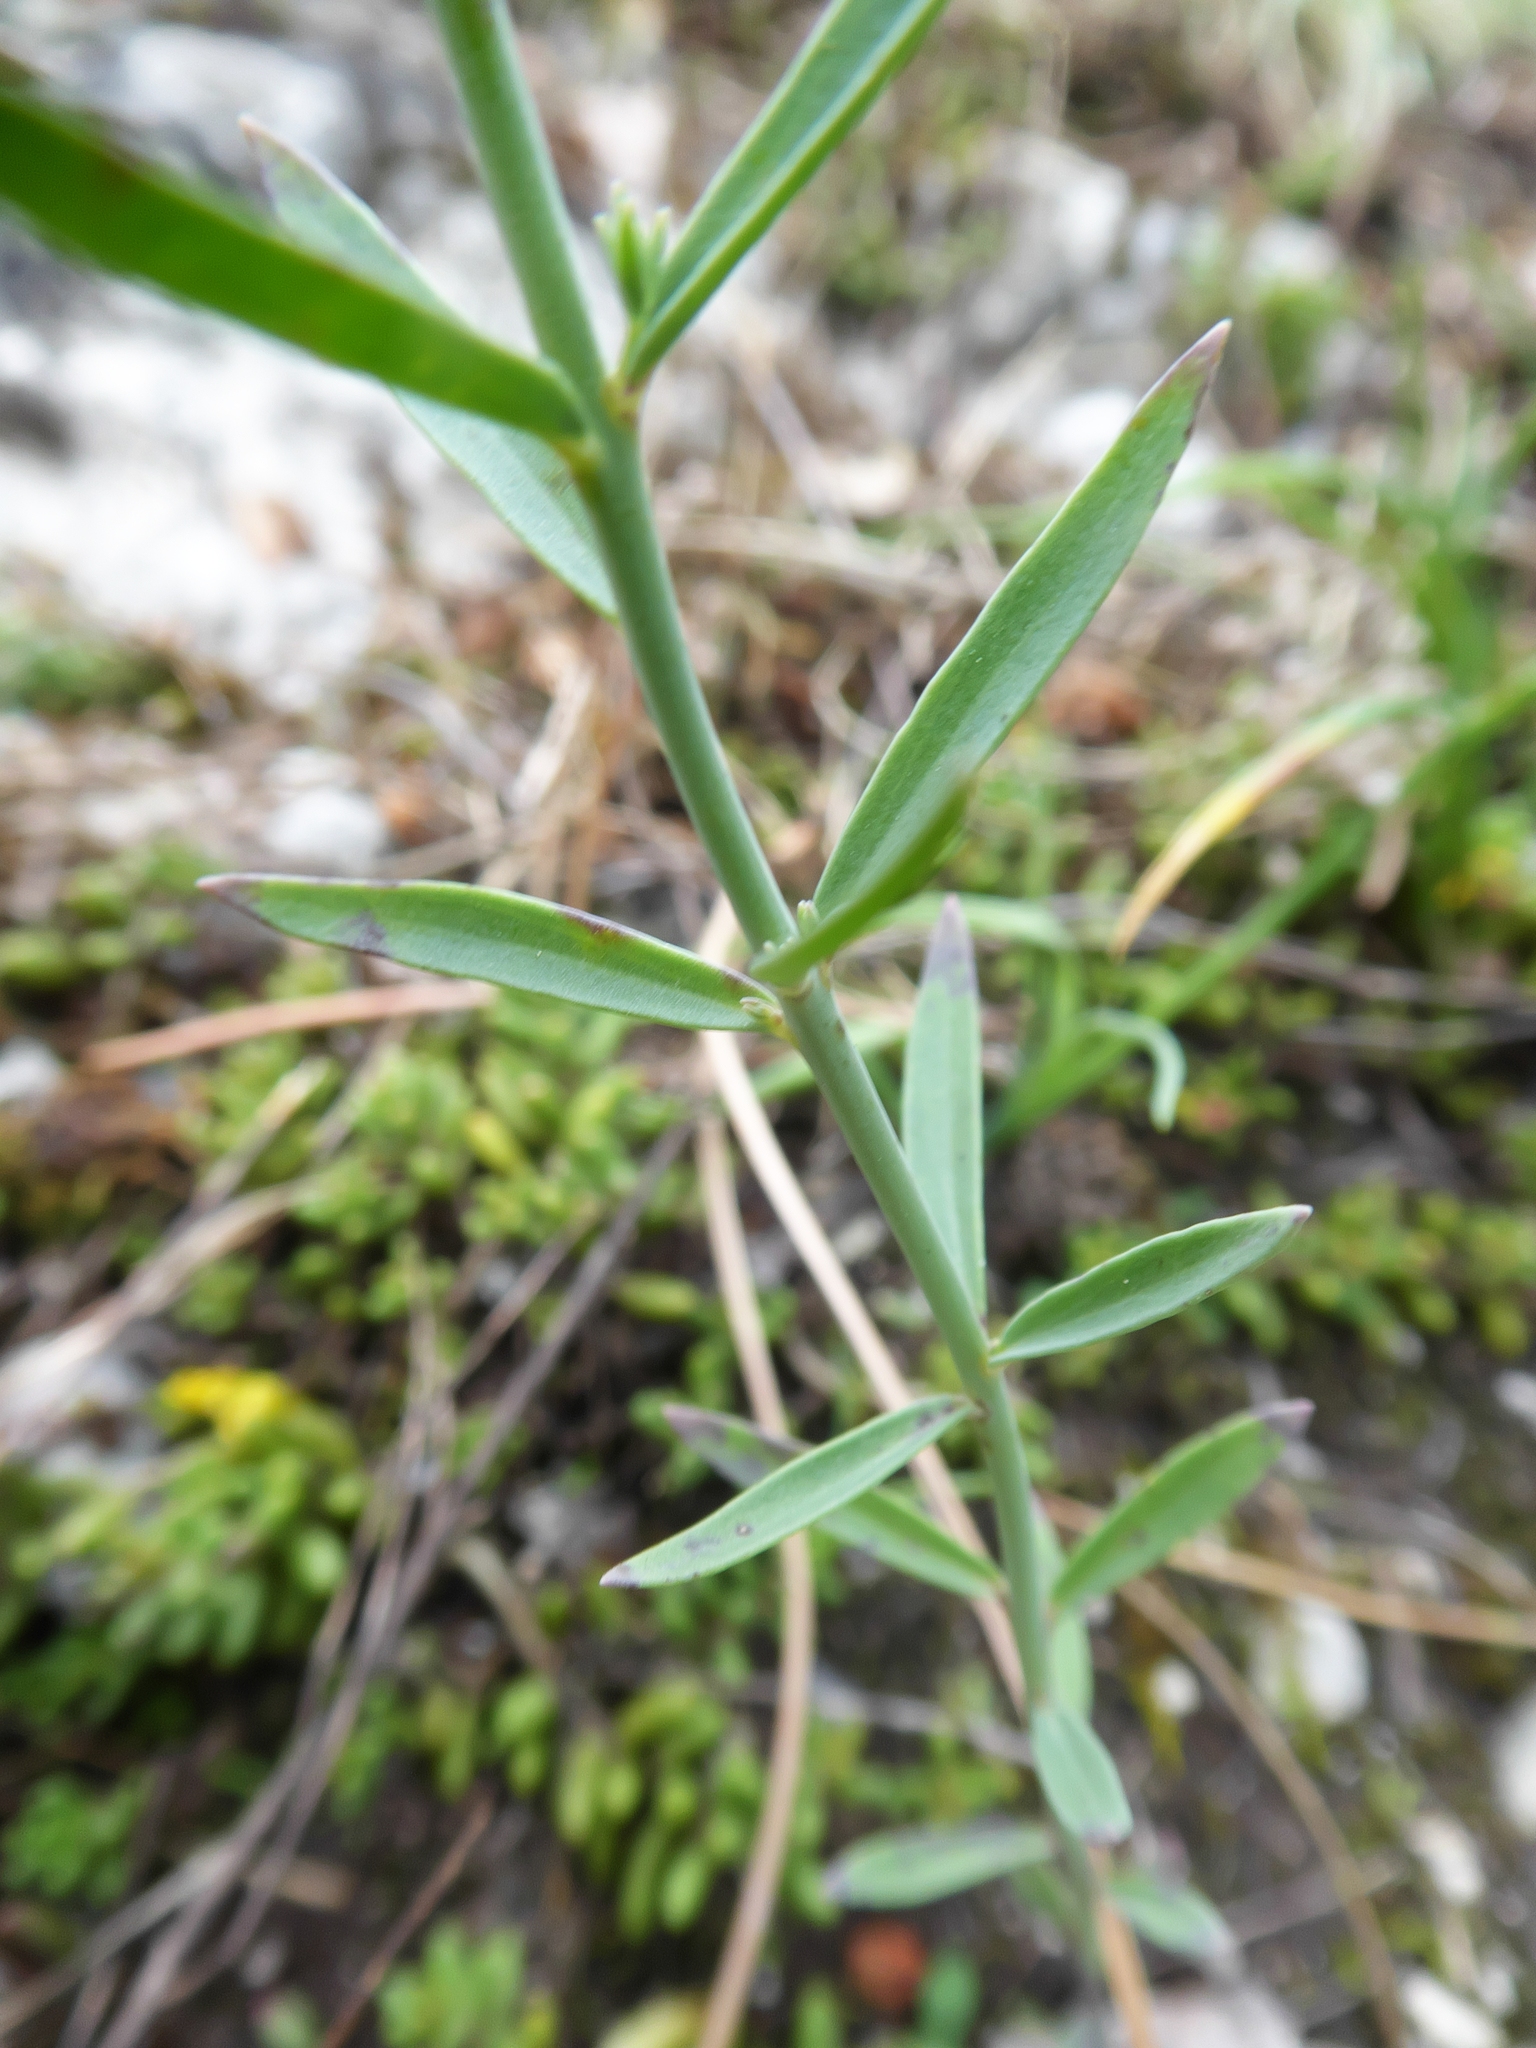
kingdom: Plantae
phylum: Tracheophyta
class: Magnoliopsida
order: Lamiales
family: Plantaginaceae
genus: Linaria
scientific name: Linaria genistifolia
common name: Broomleaf toadflax
